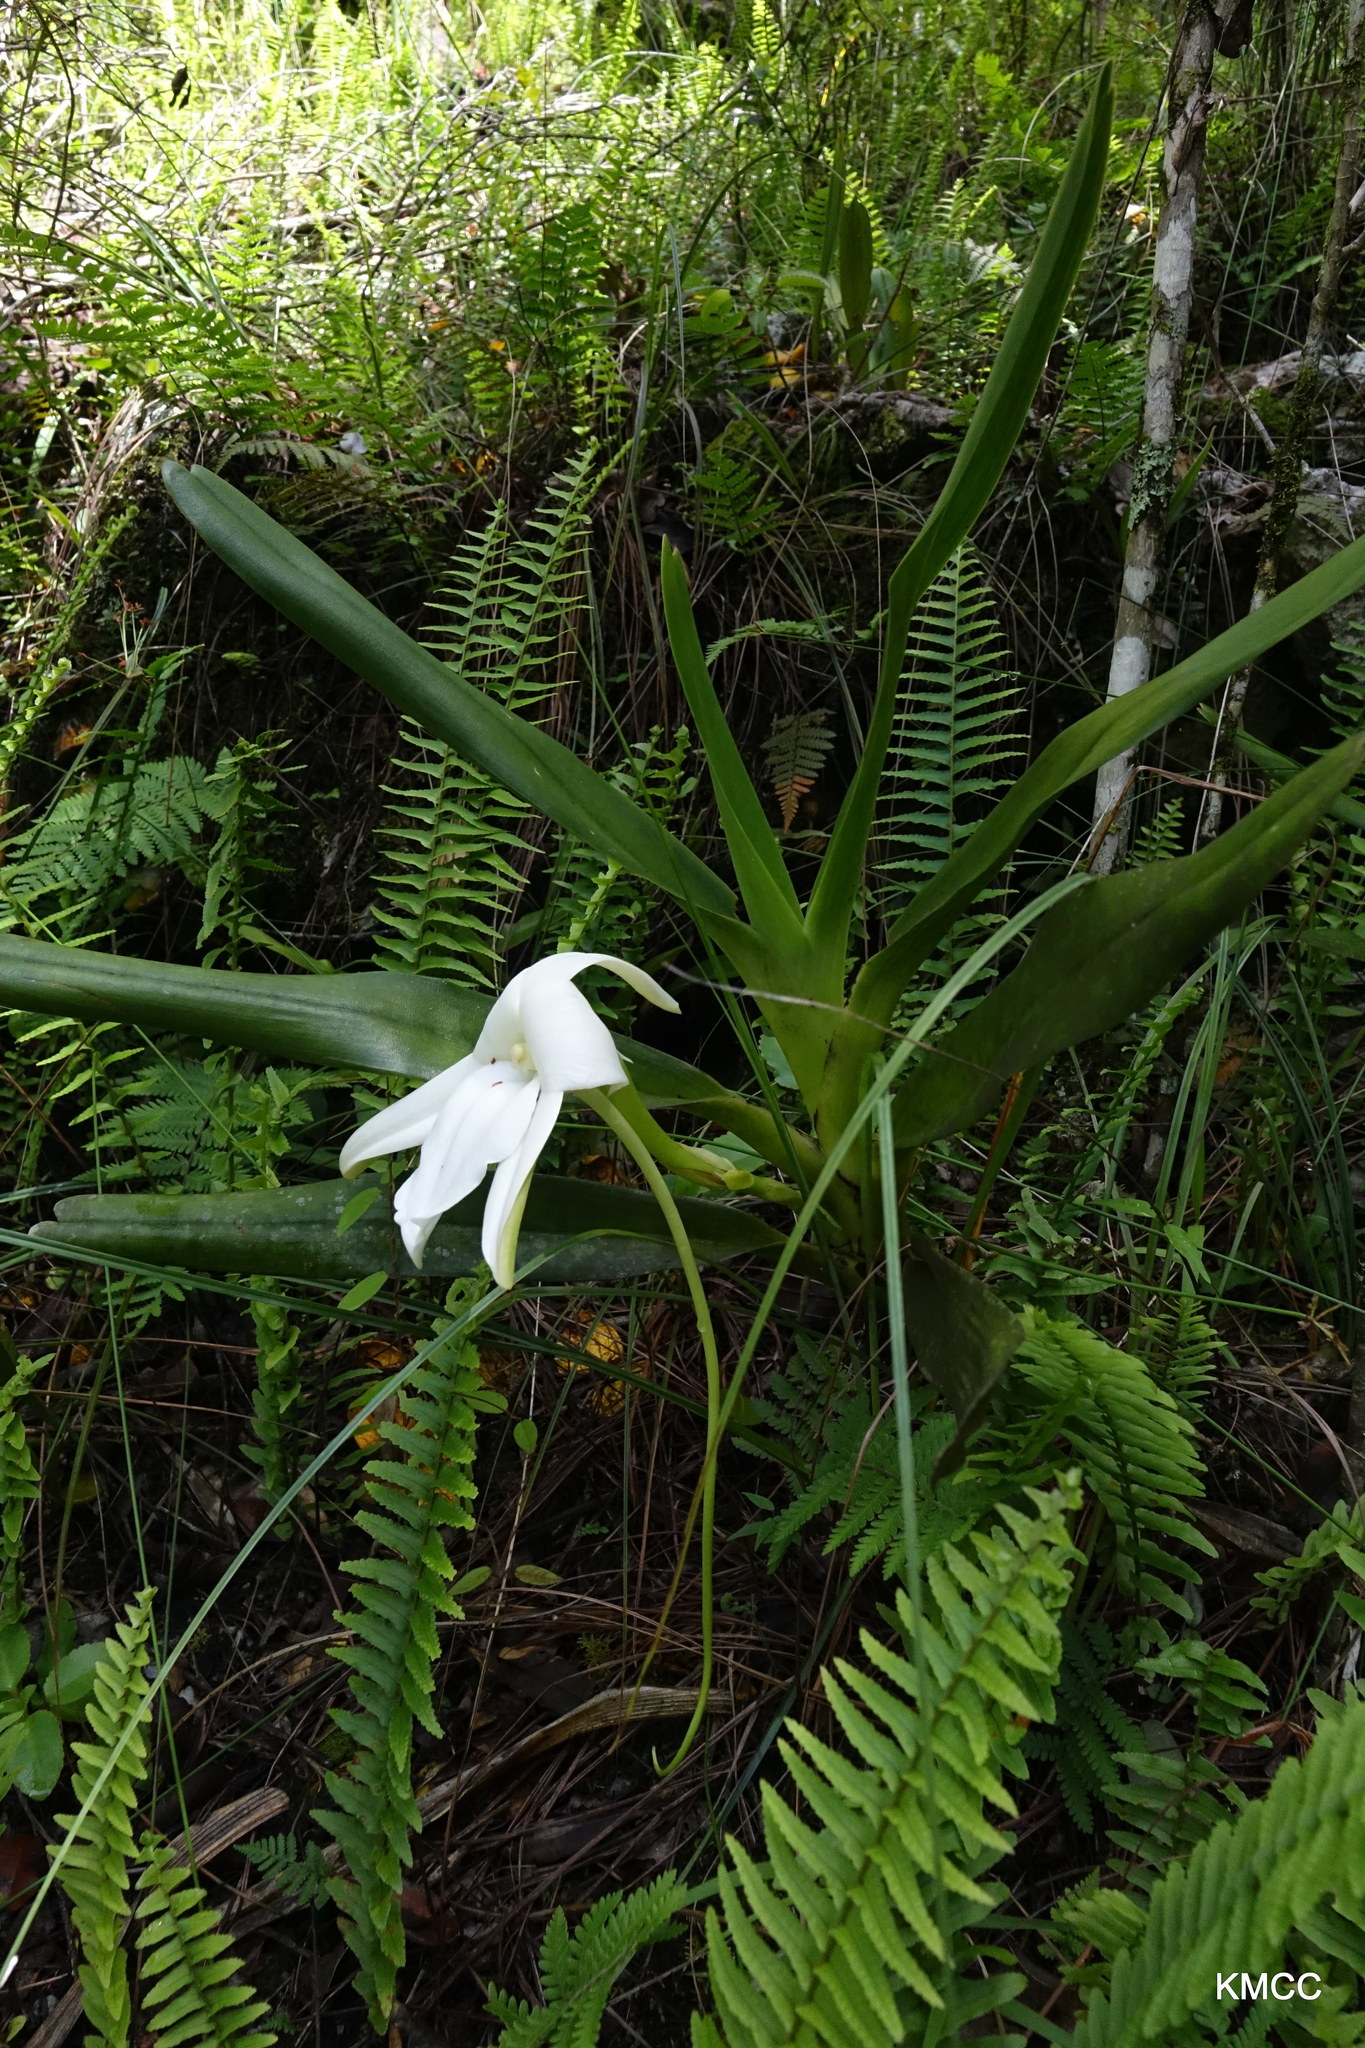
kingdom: Plantae
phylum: Tracheophyta
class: Liliopsida
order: Asparagales
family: Orchidaceae
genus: Angraecum
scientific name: Angraecum sororium
